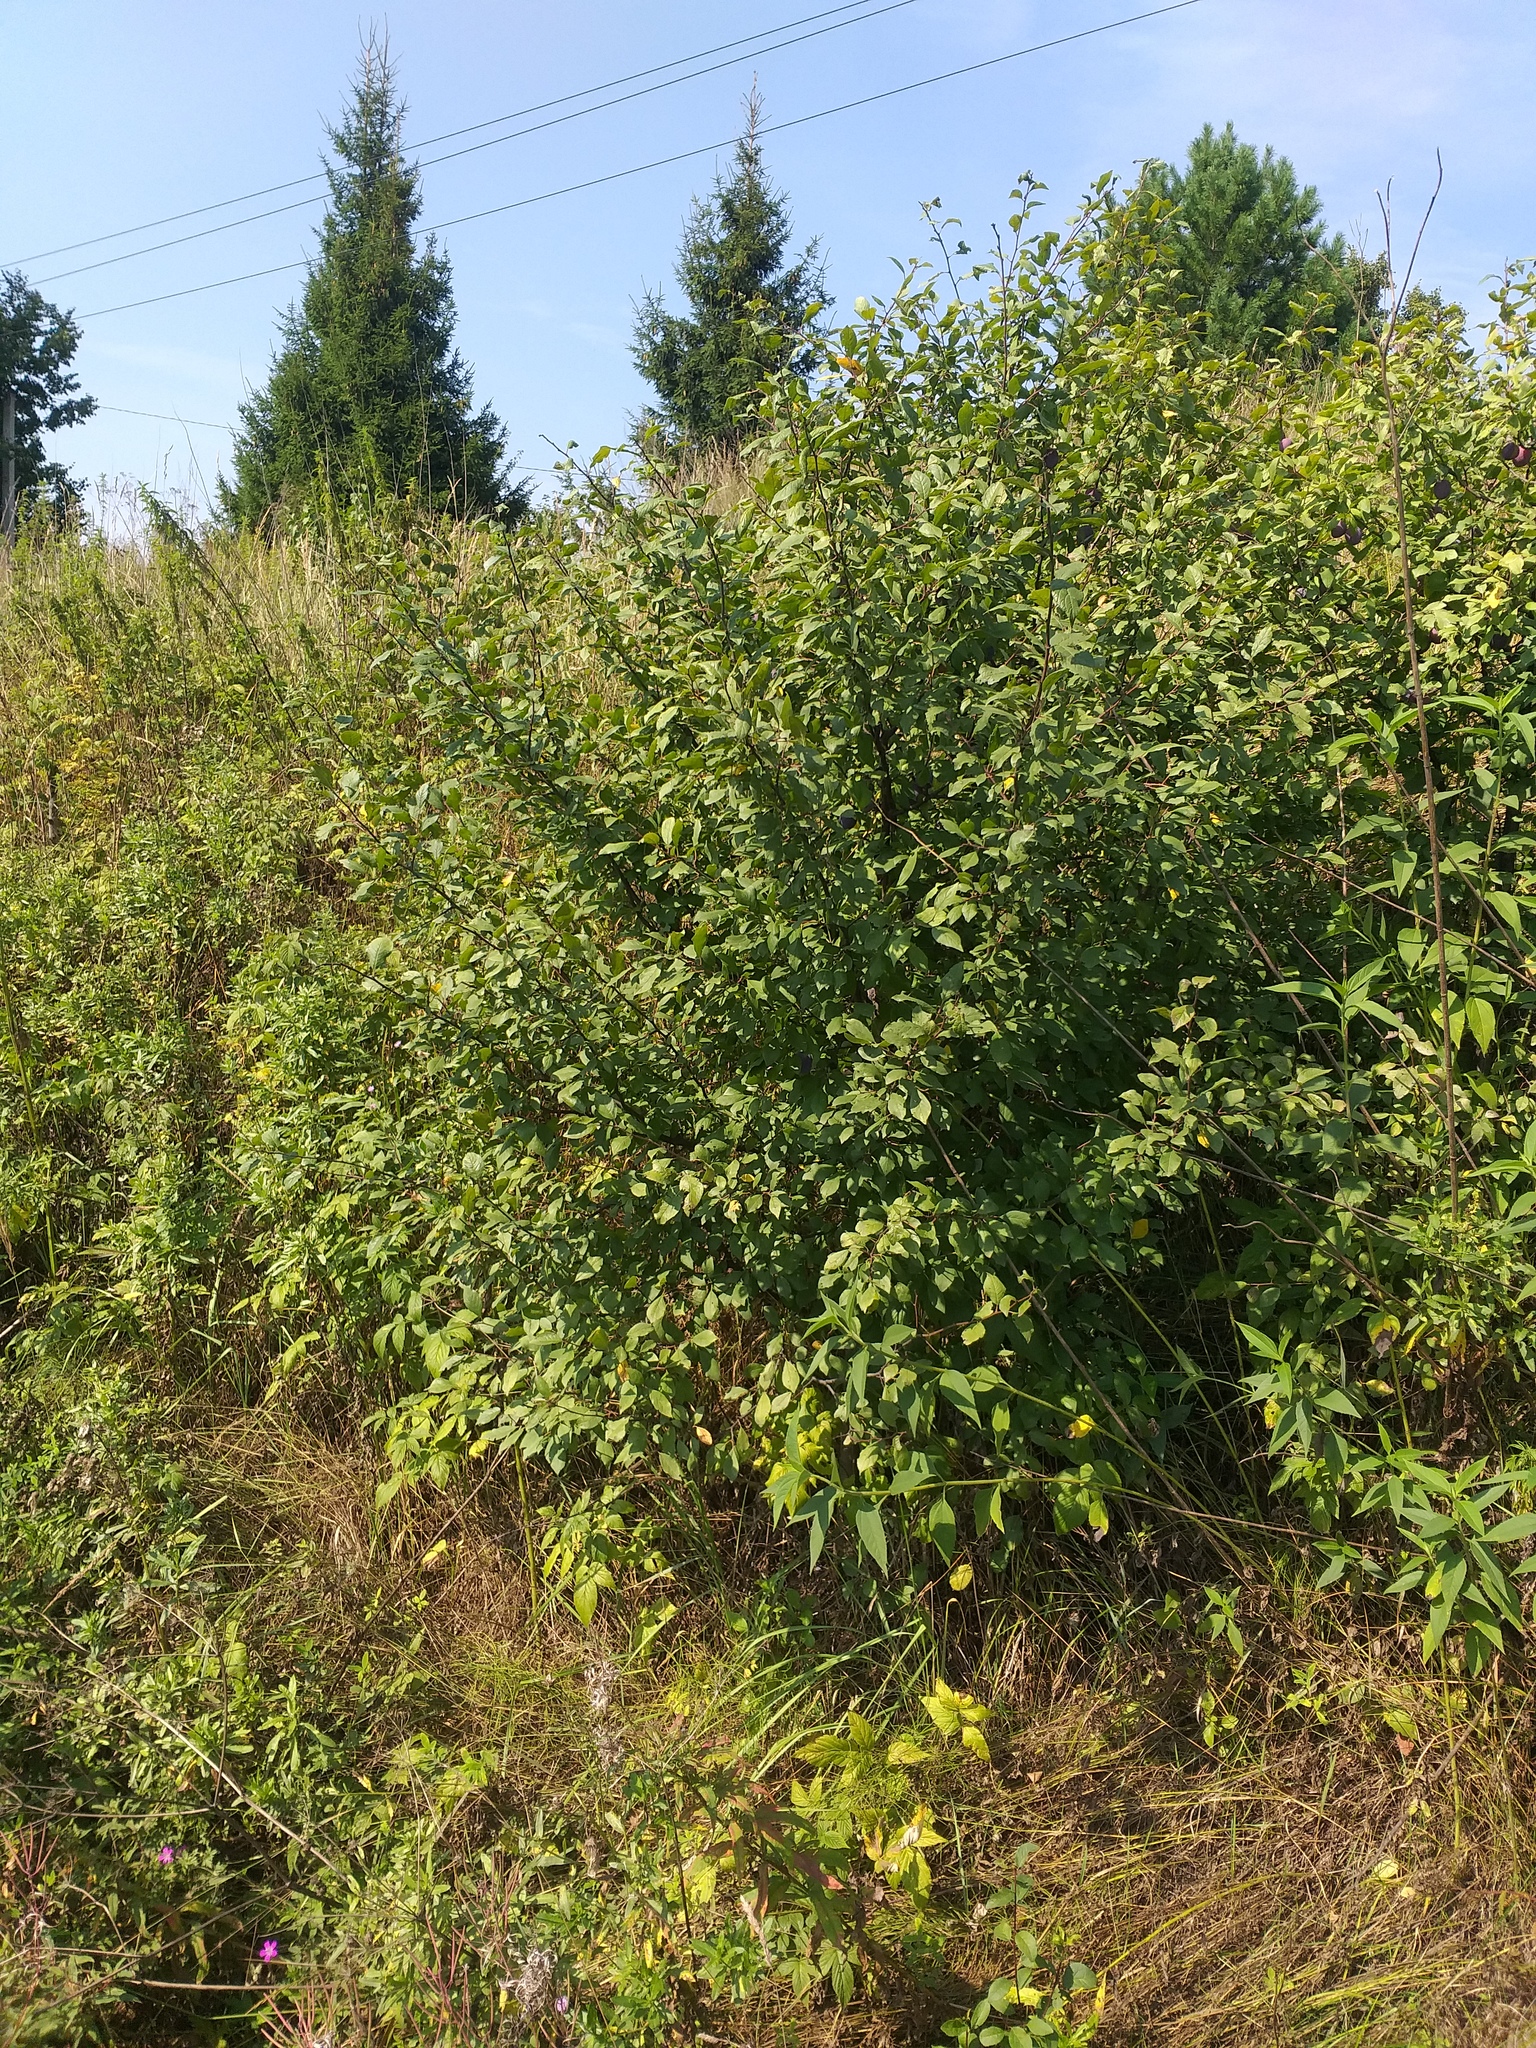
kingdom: Plantae
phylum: Tracheophyta
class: Magnoliopsida
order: Rosales
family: Rosaceae
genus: Prunus
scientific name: Prunus domestica
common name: Wild plum
